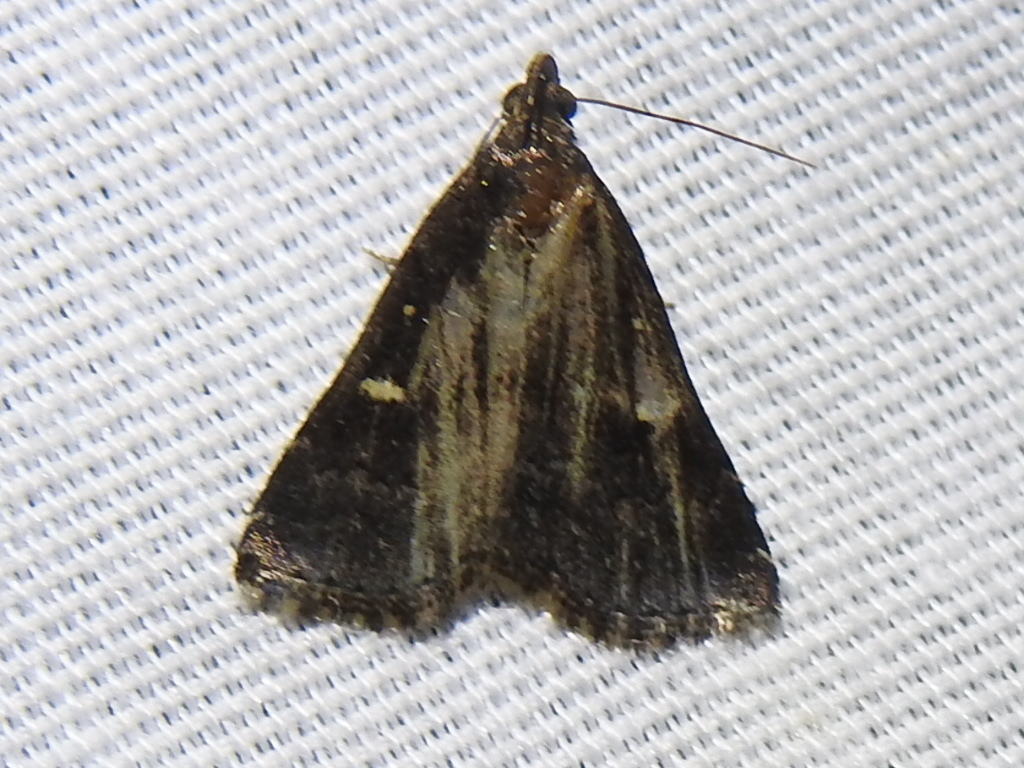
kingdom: Animalia
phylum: Arthropoda
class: Insecta
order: Lepidoptera
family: Erebidae
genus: Tetanolita
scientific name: Tetanolita mynesalis
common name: Smoky tetanolita moth
